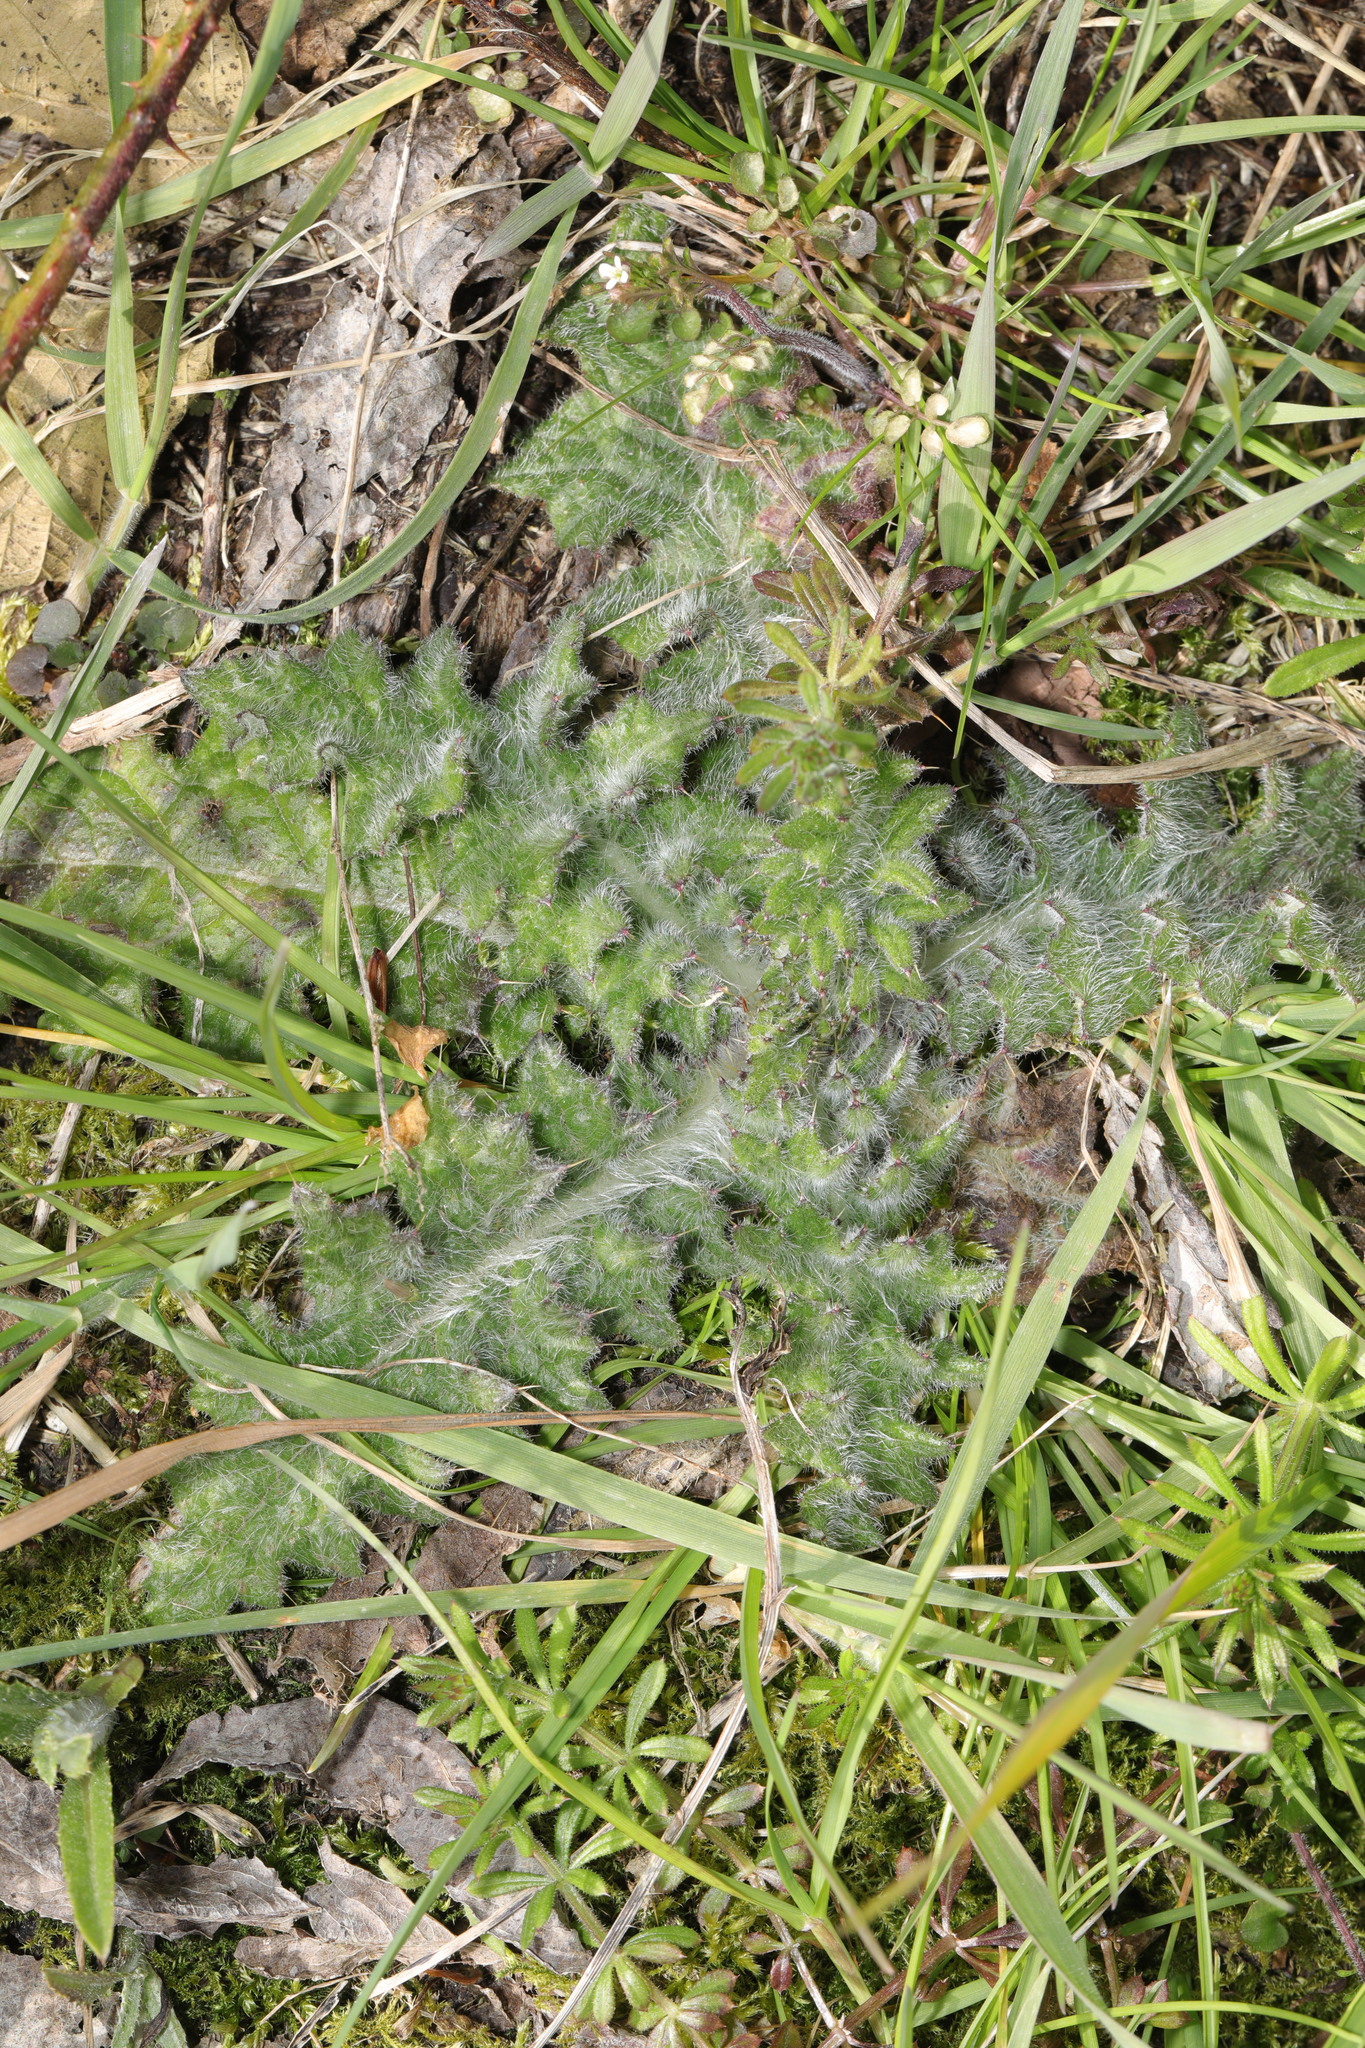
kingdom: Plantae
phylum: Tracheophyta
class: Magnoliopsida
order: Asterales
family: Asteraceae
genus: Cirsium
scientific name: Cirsium vulgare
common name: Bull thistle
